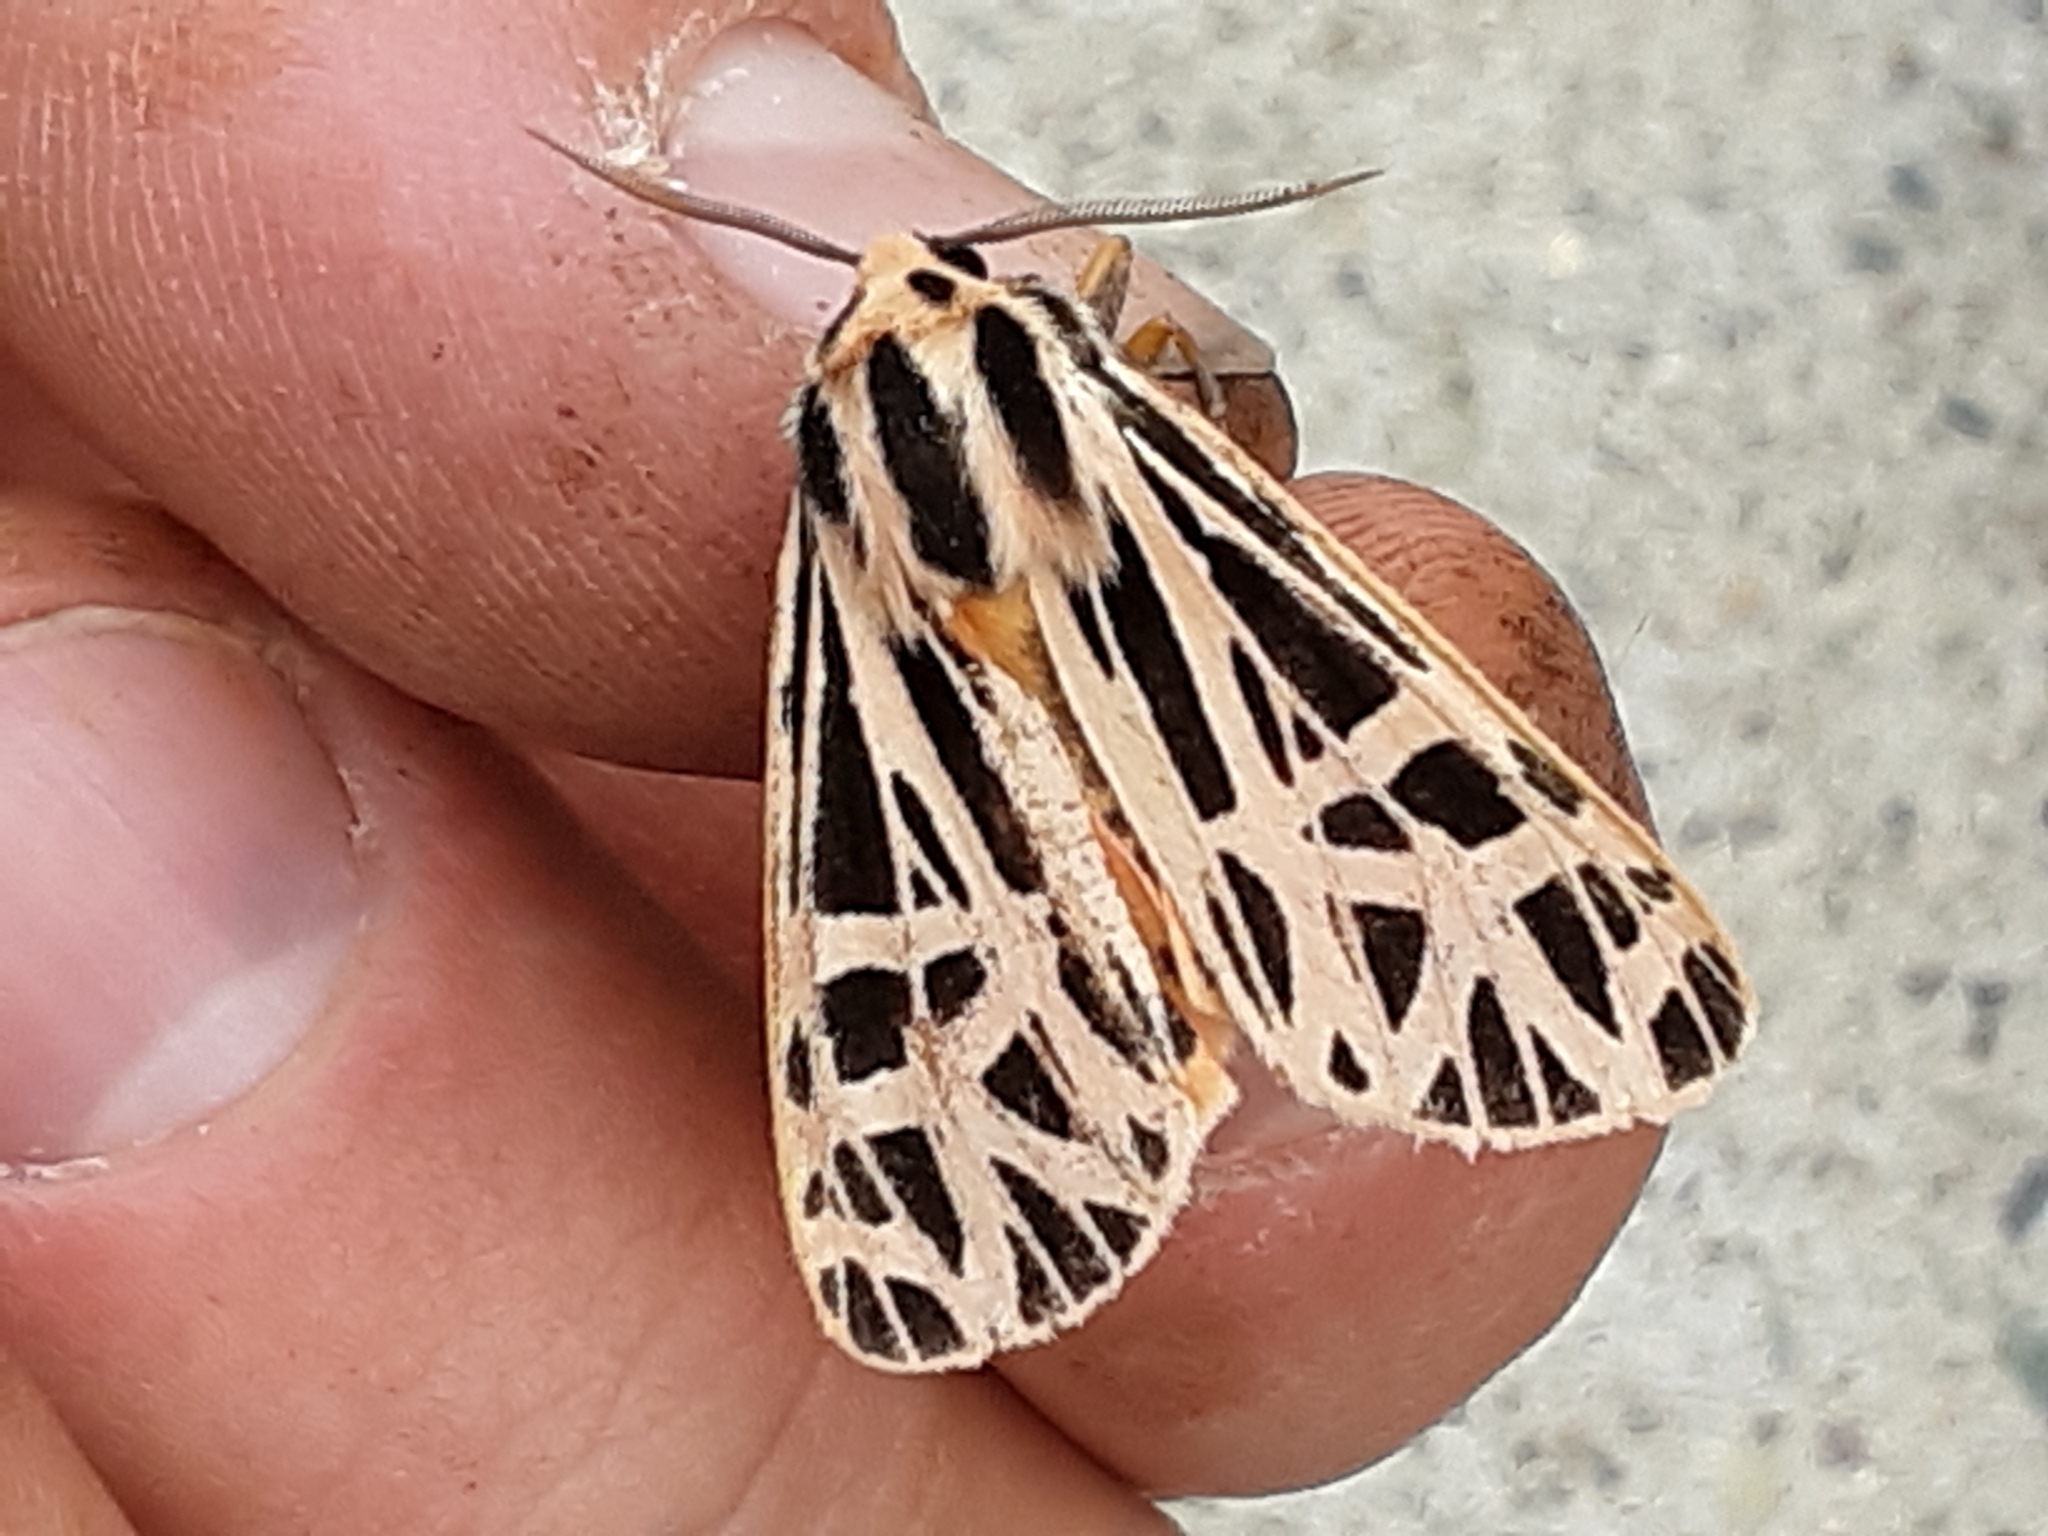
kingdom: Animalia
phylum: Arthropoda
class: Insecta
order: Lepidoptera
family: Erebidae
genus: Grammia
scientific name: Grammia parthenice
